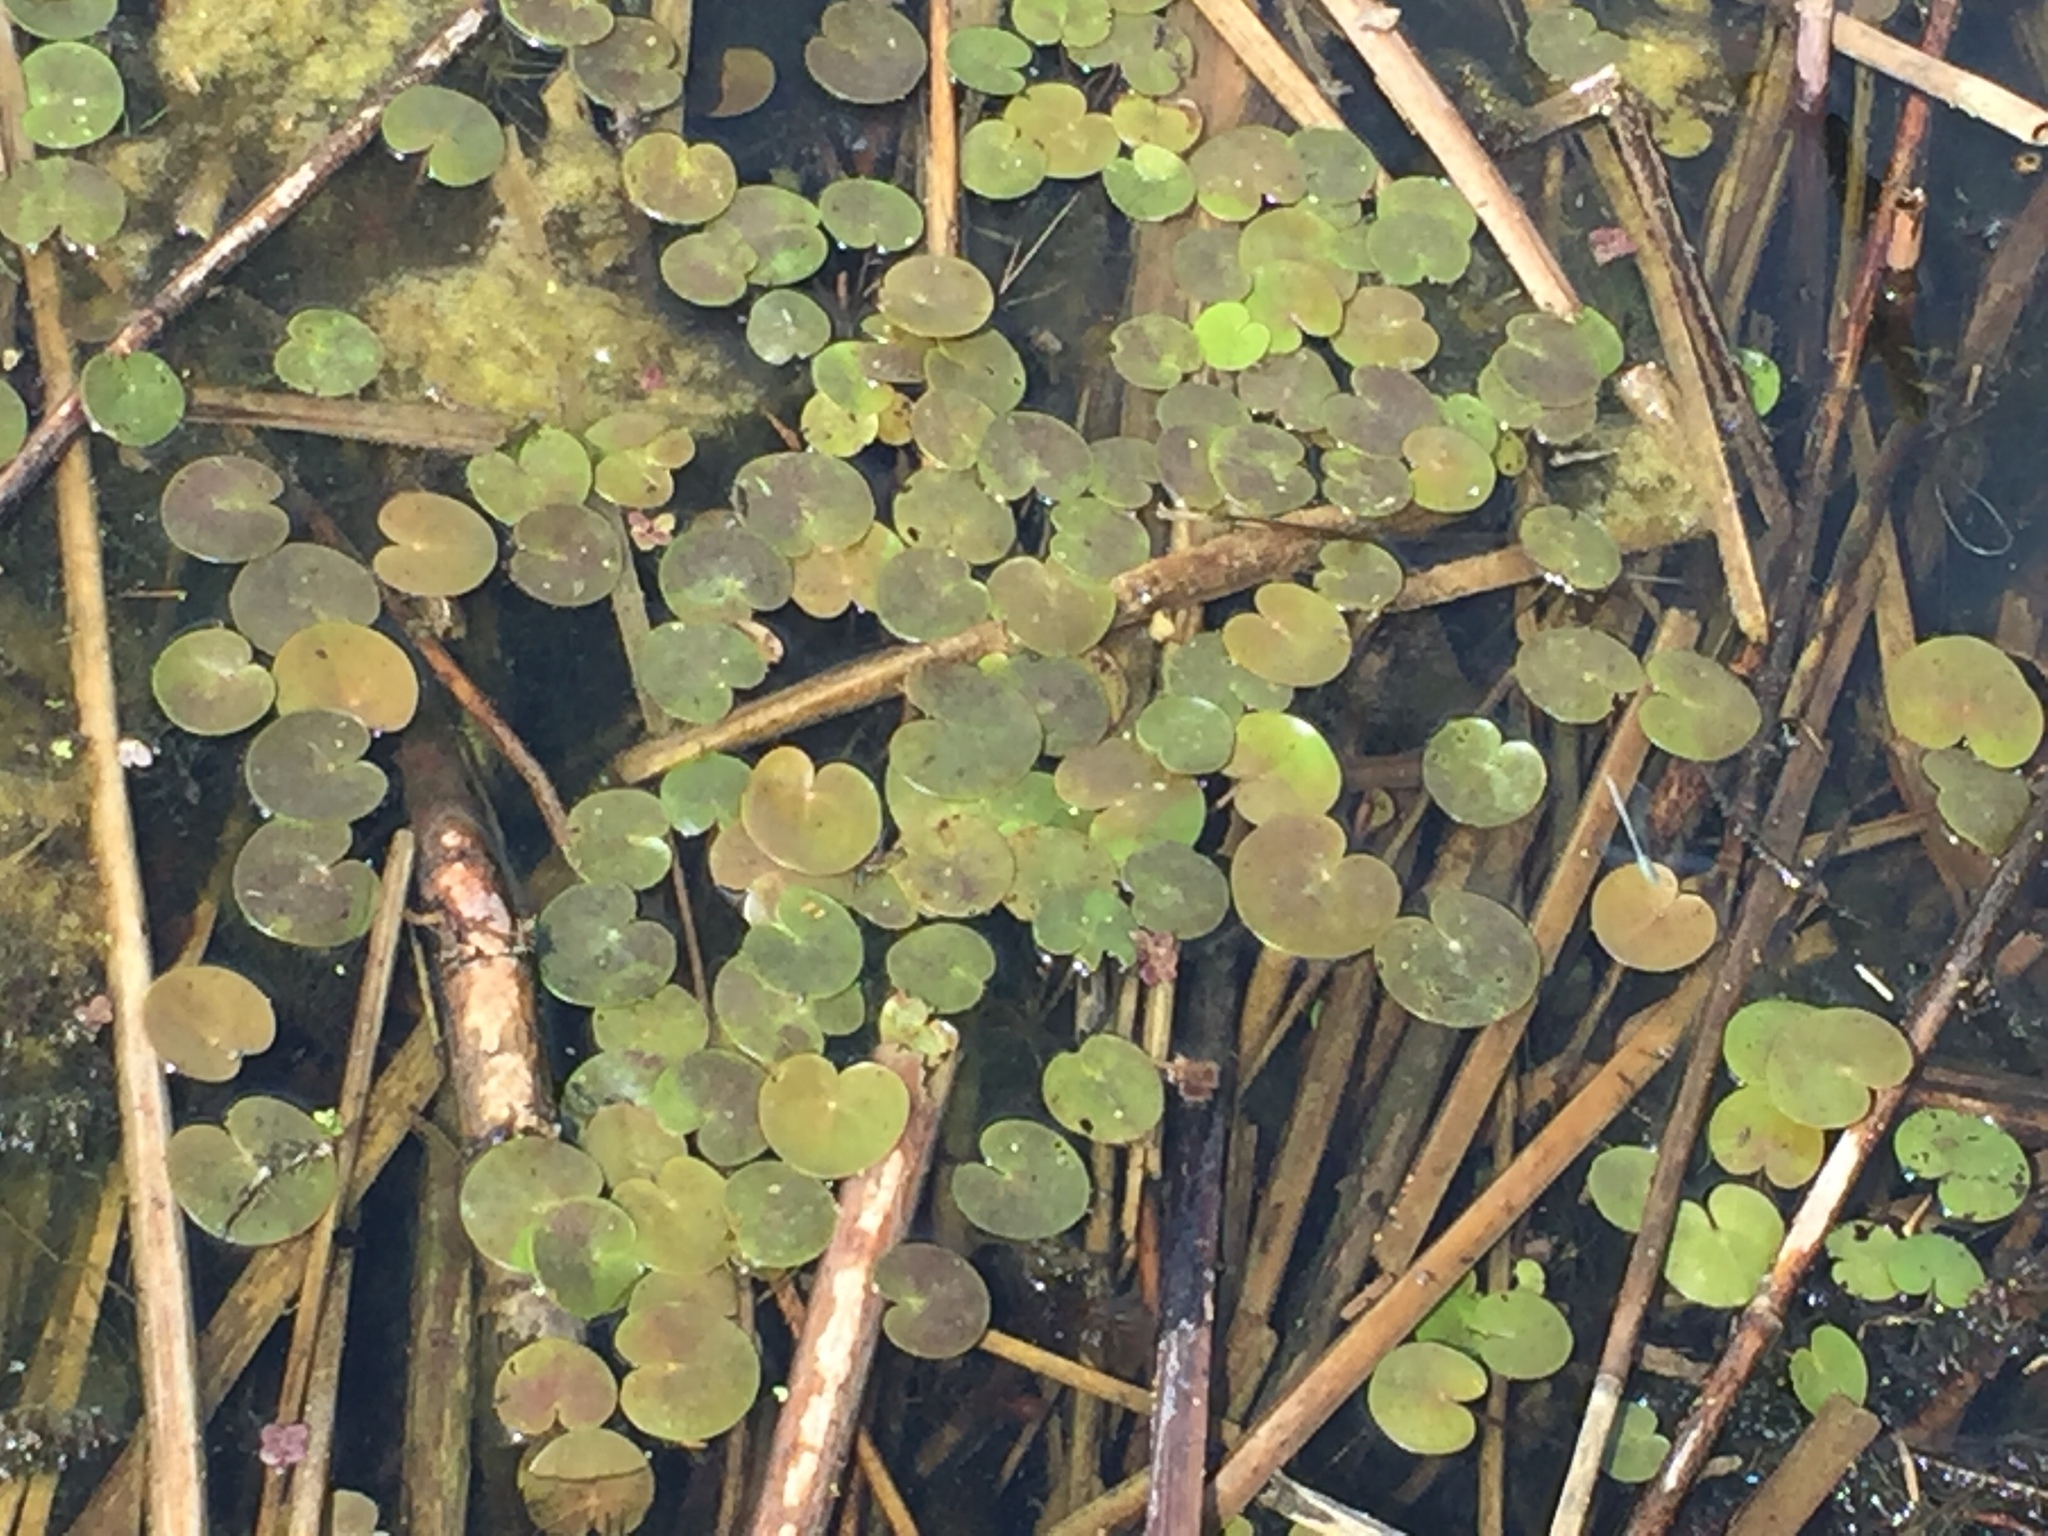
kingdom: Plantae
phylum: Tracheophyta
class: Liliopsida
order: Alismatales
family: Hydrocharitaceae
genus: Hydrocharis
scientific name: Hydrocharis morsus-ranae
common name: Frogbit
